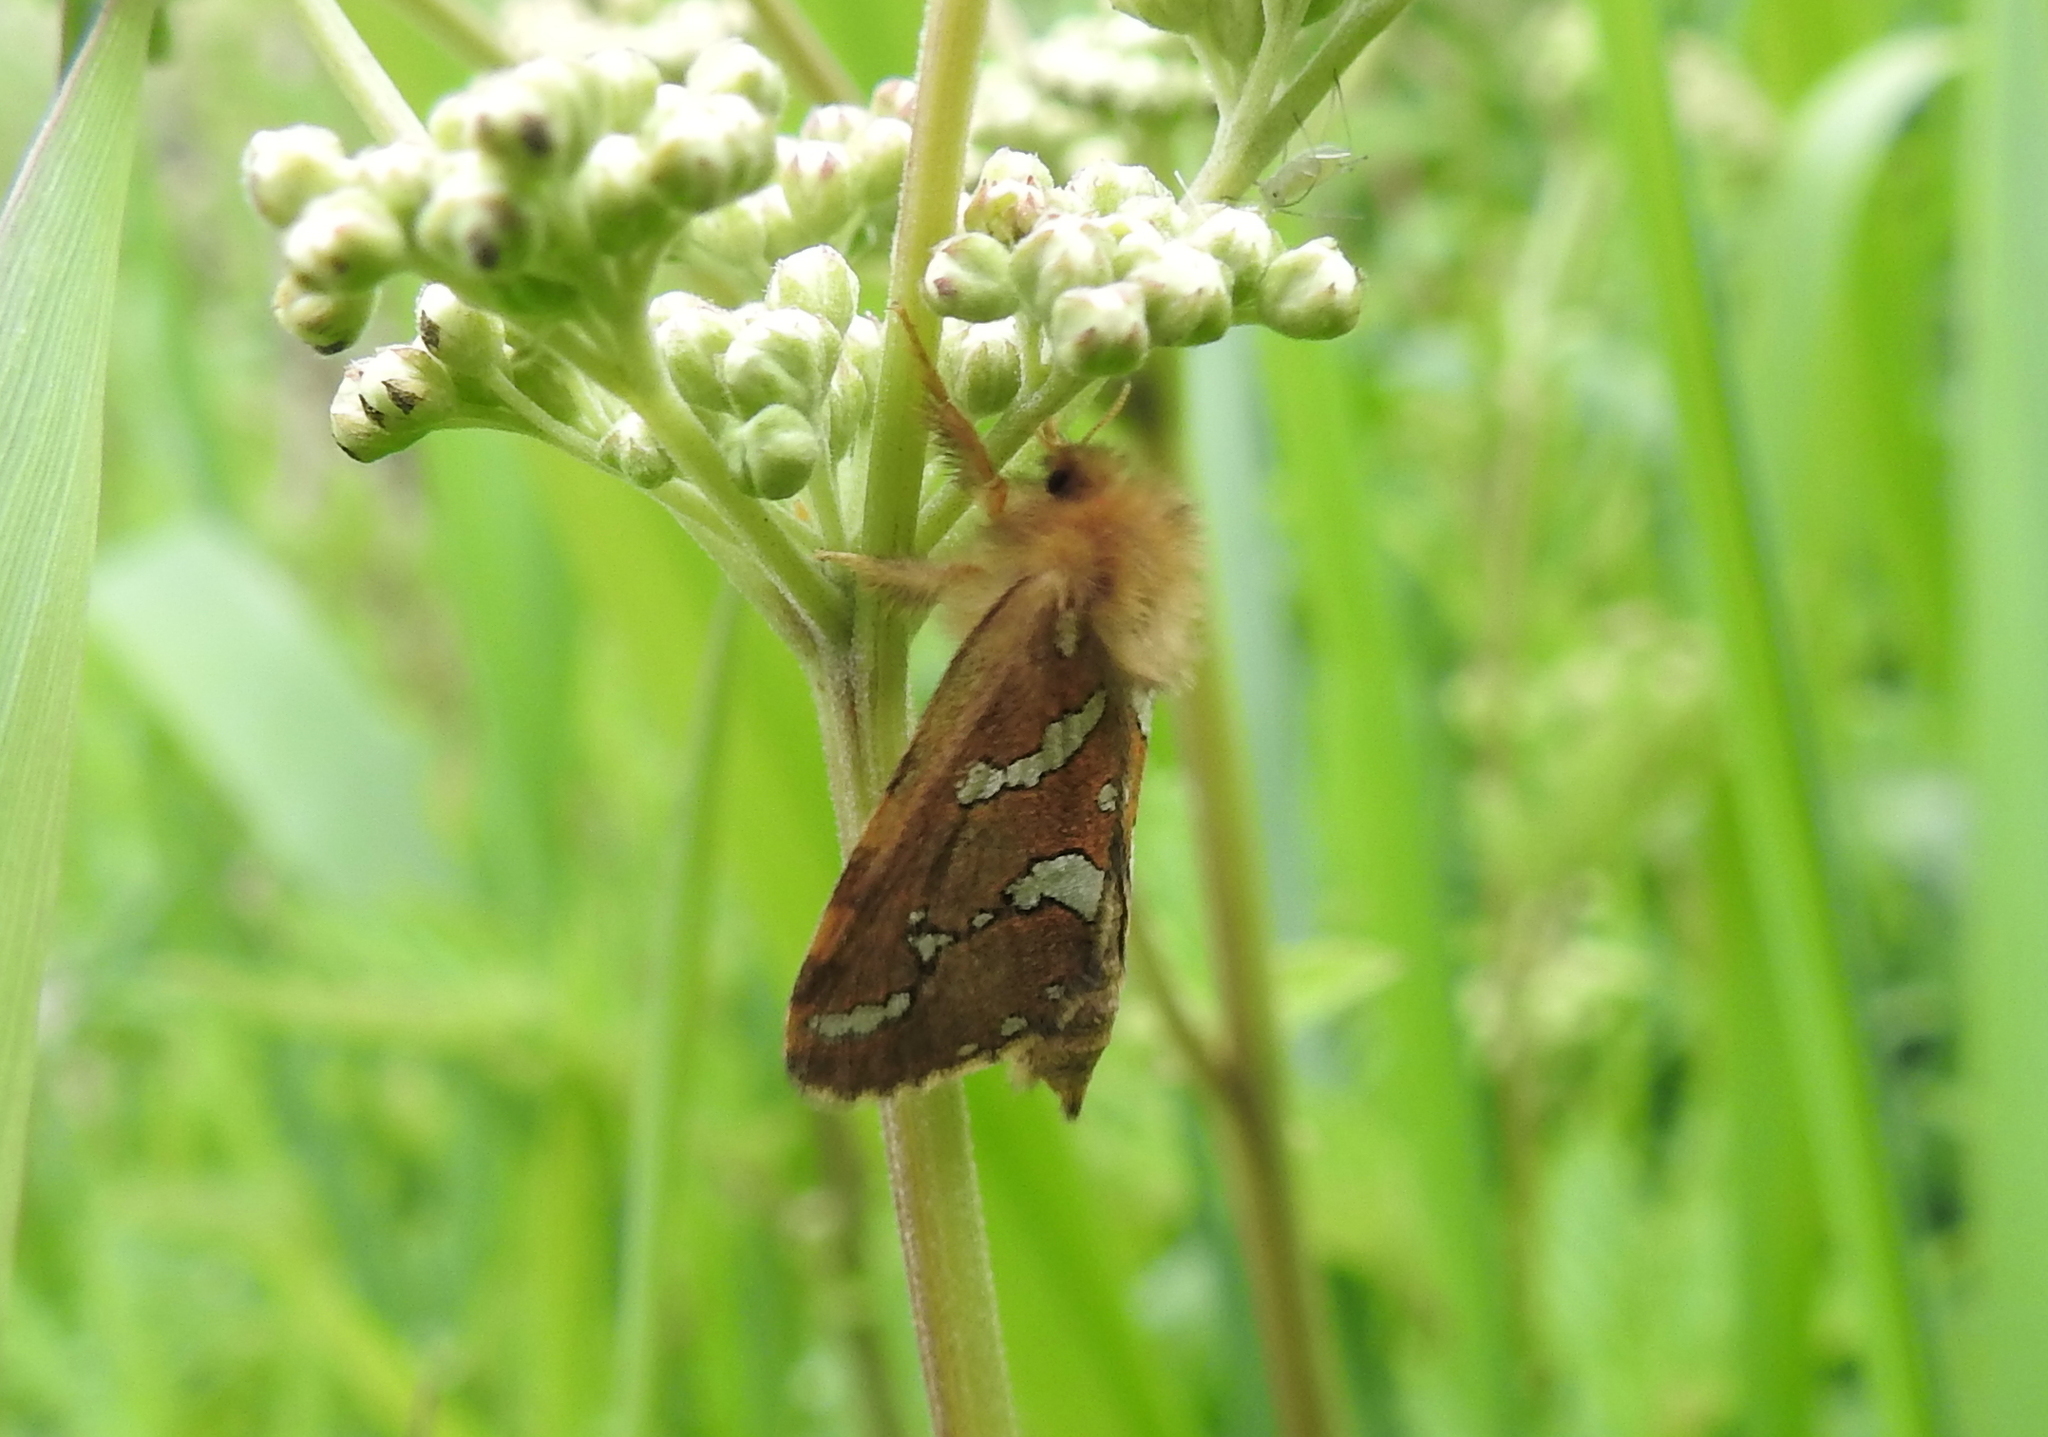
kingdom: Animalia
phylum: Arthropoda
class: Insecta
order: Lepidoptera
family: Hepialidae
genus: Phymatopus
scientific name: Phymatopus hecta
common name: Gold swift
